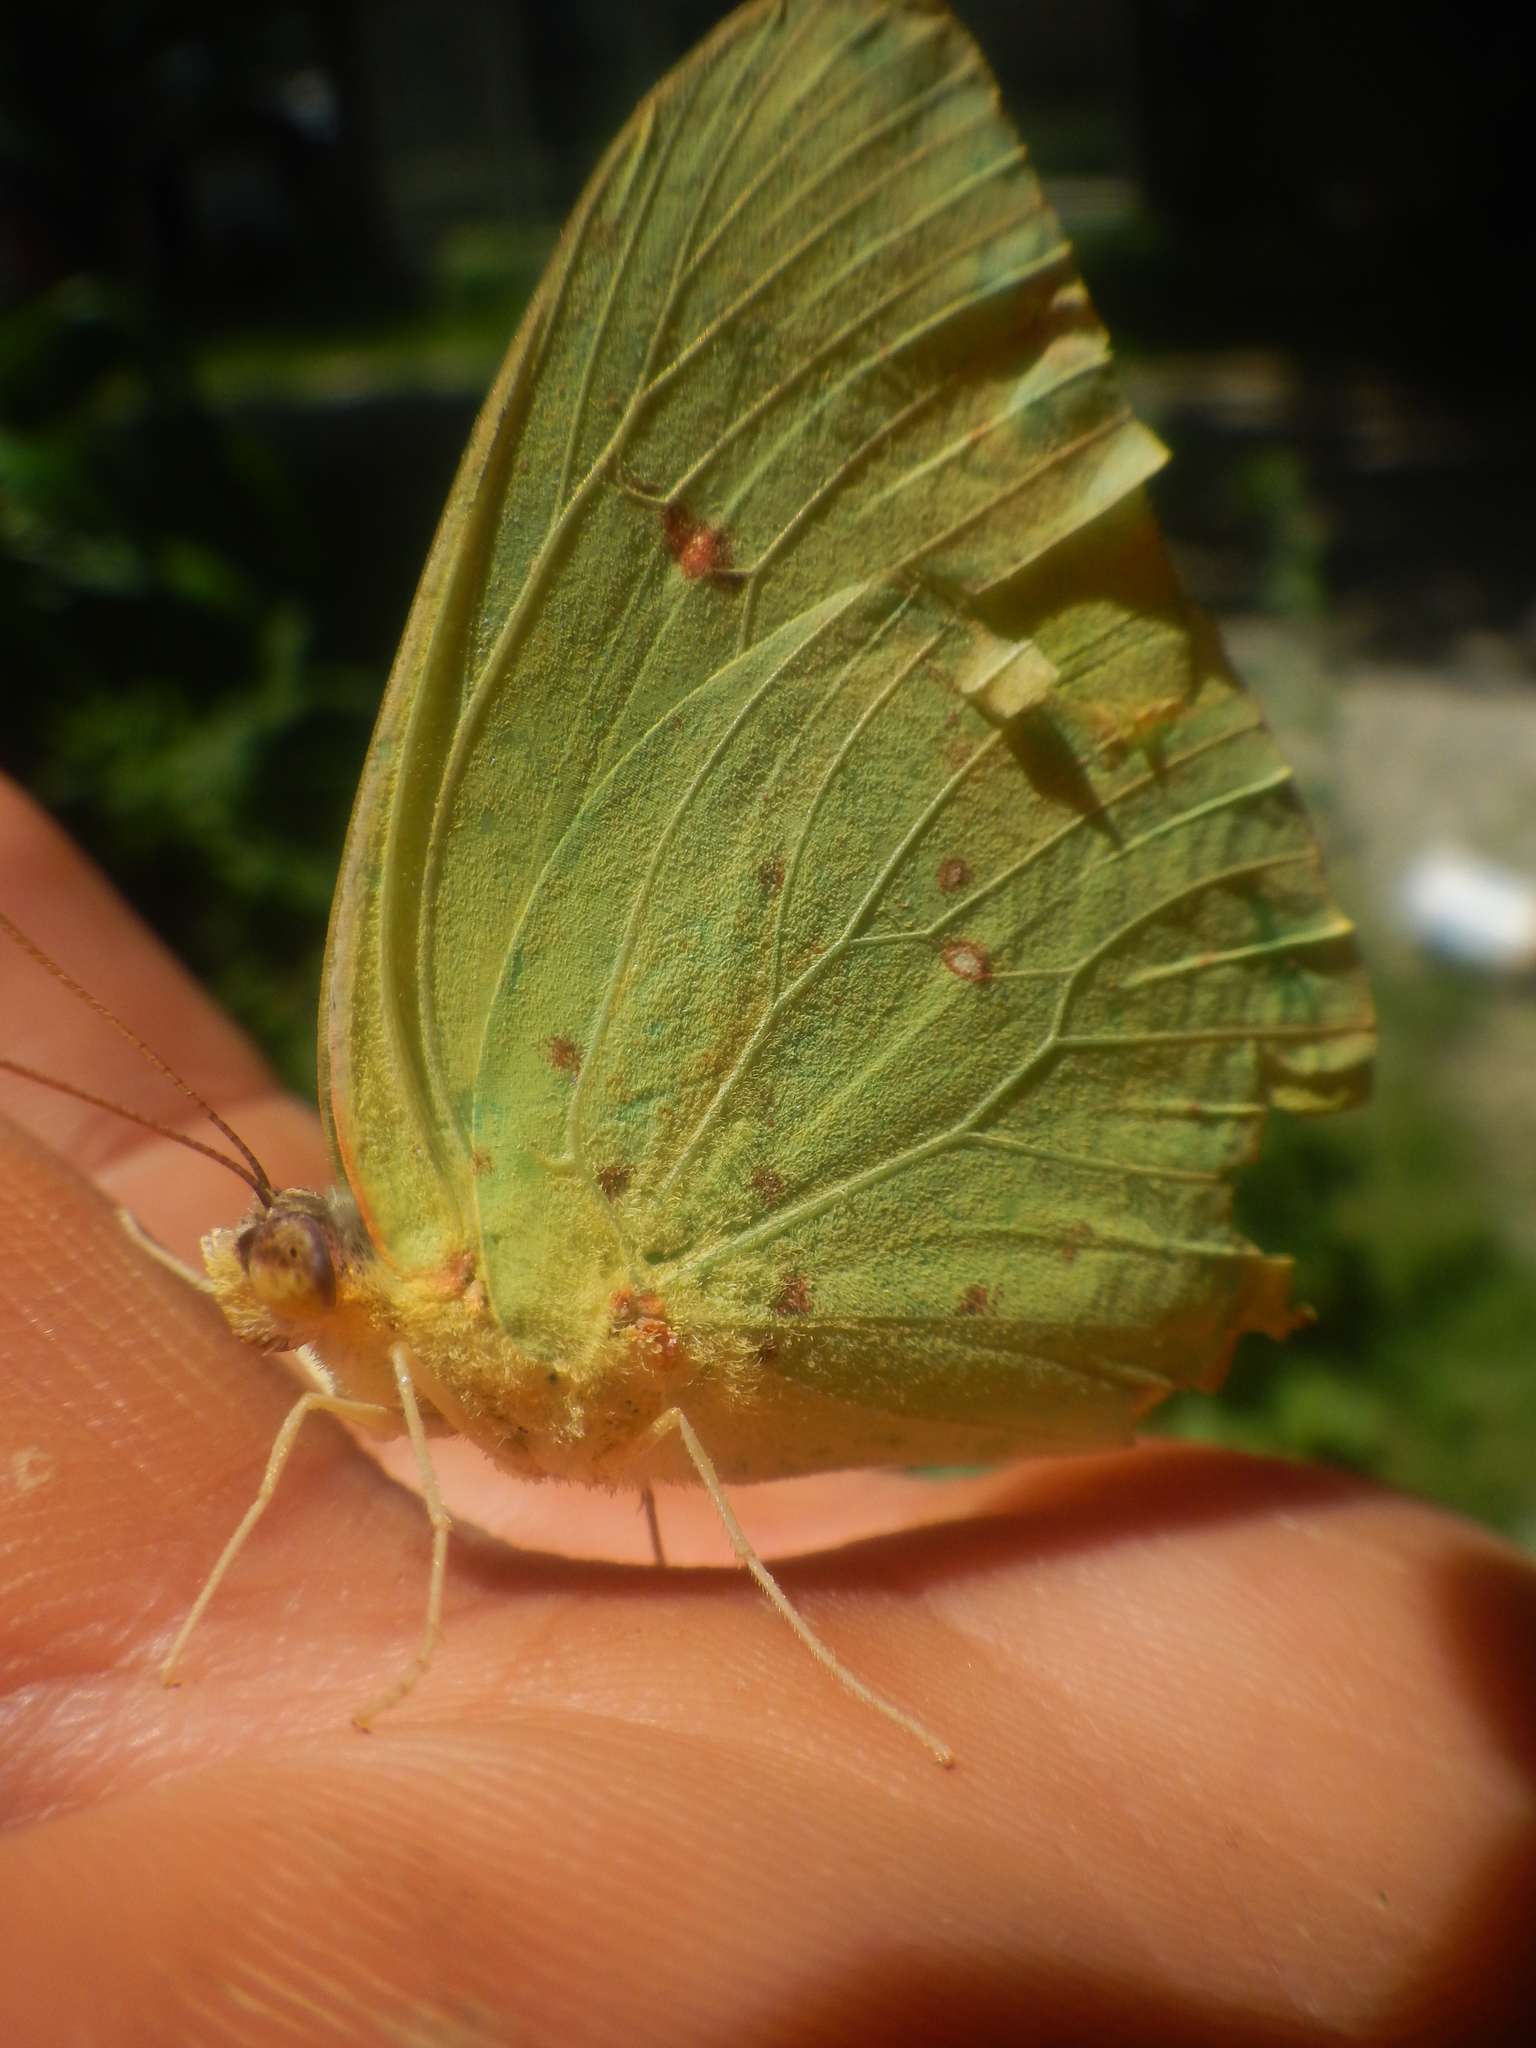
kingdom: Animalia
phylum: Arthropoda
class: Insecta
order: Lepidoptera
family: Pieridae
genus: Phoebis
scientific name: Phoebis sennae
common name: Cloudless sulphur
